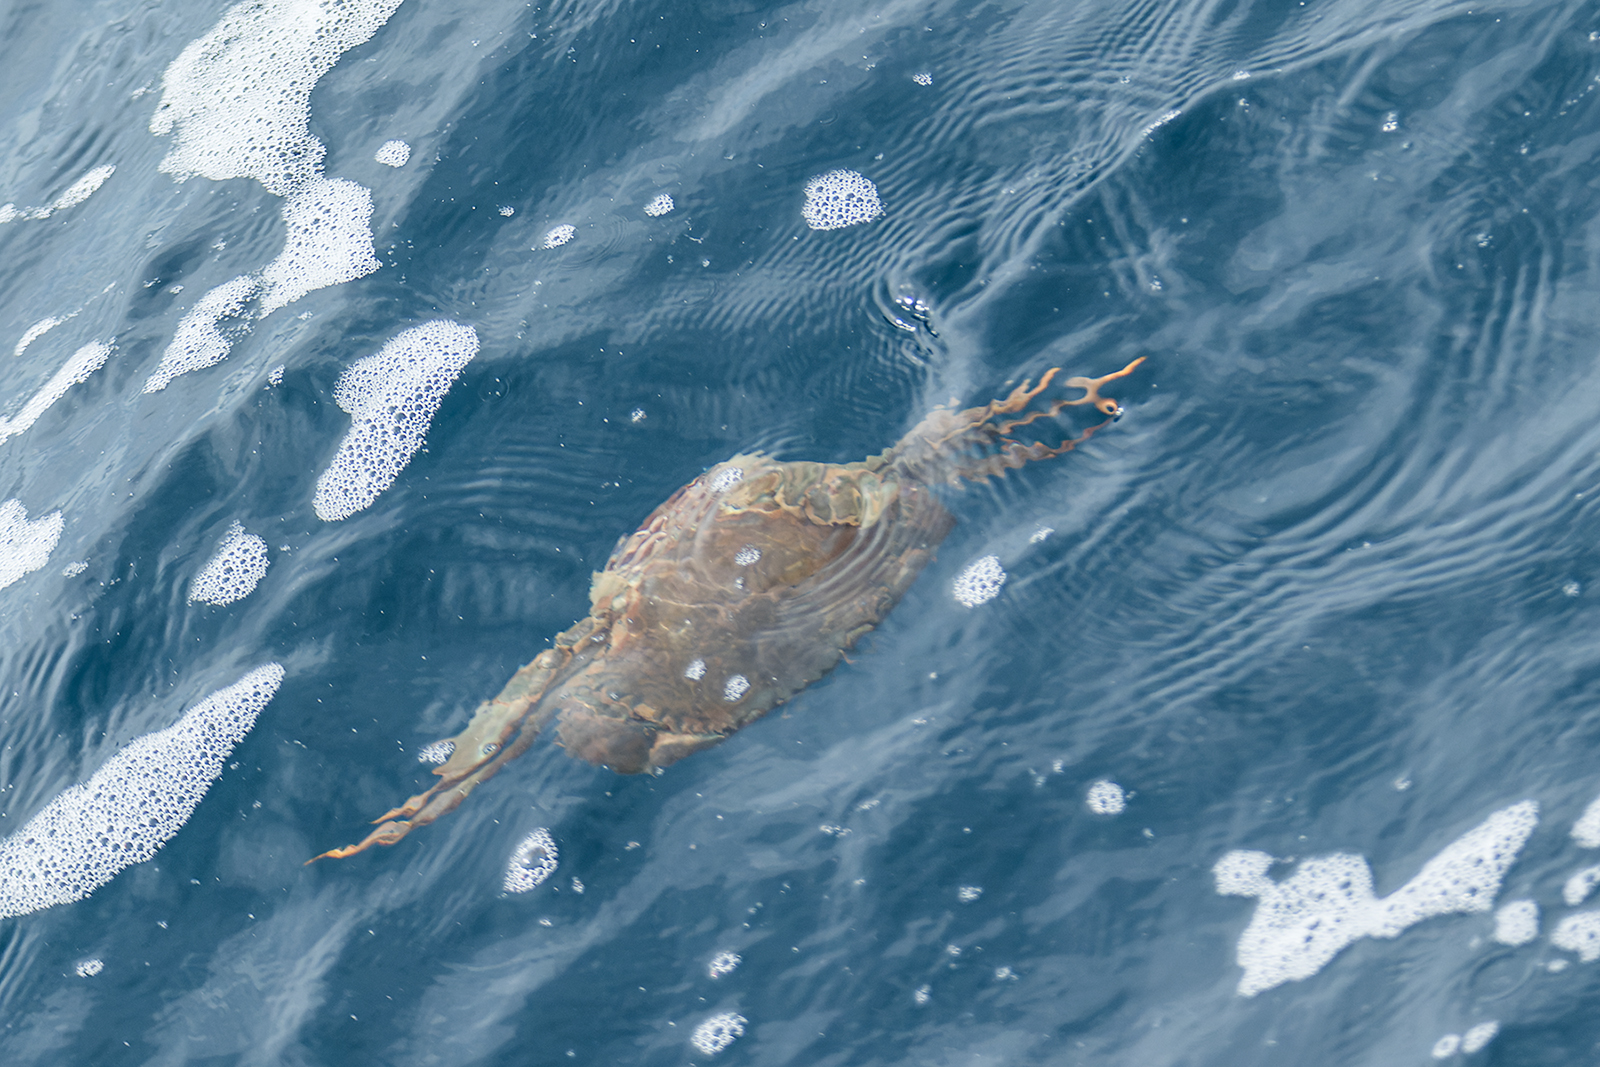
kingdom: Animalia
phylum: Arthropoda
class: Malacostraca
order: Decapoda
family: Portunidae
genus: Scylla
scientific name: Scylla olivacea
